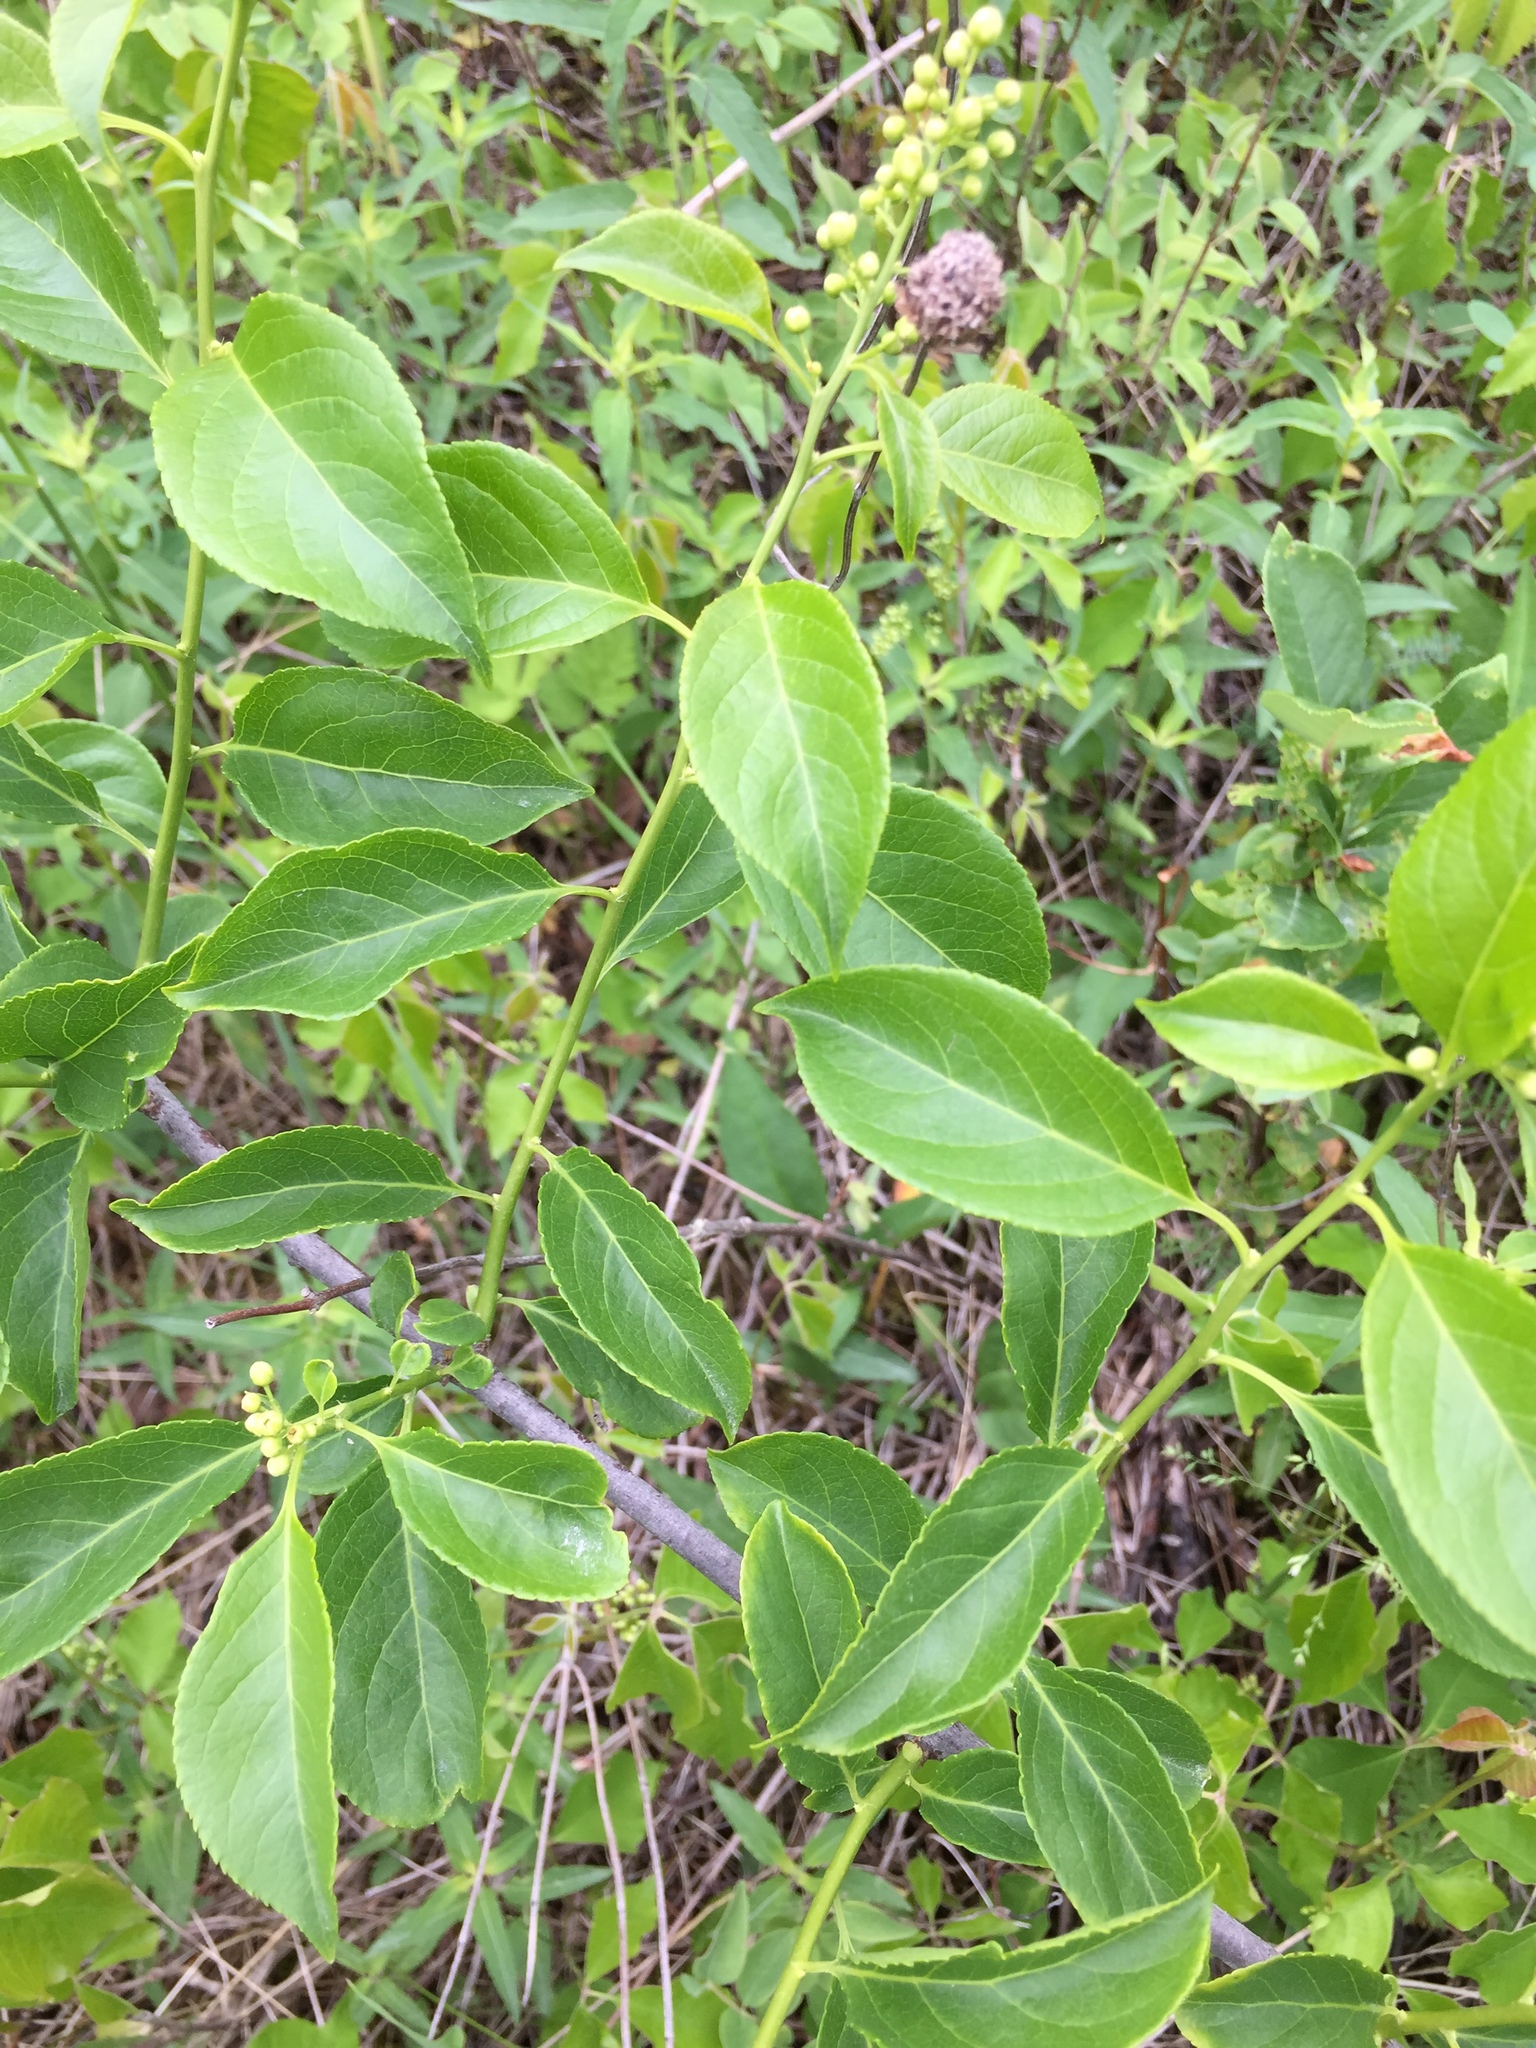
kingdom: Plantae
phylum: Tracheophyta
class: Magnoliopsida
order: Celastrales
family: Celastraceae
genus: Celastrus
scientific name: Celastrus scandens
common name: American bittersweet
